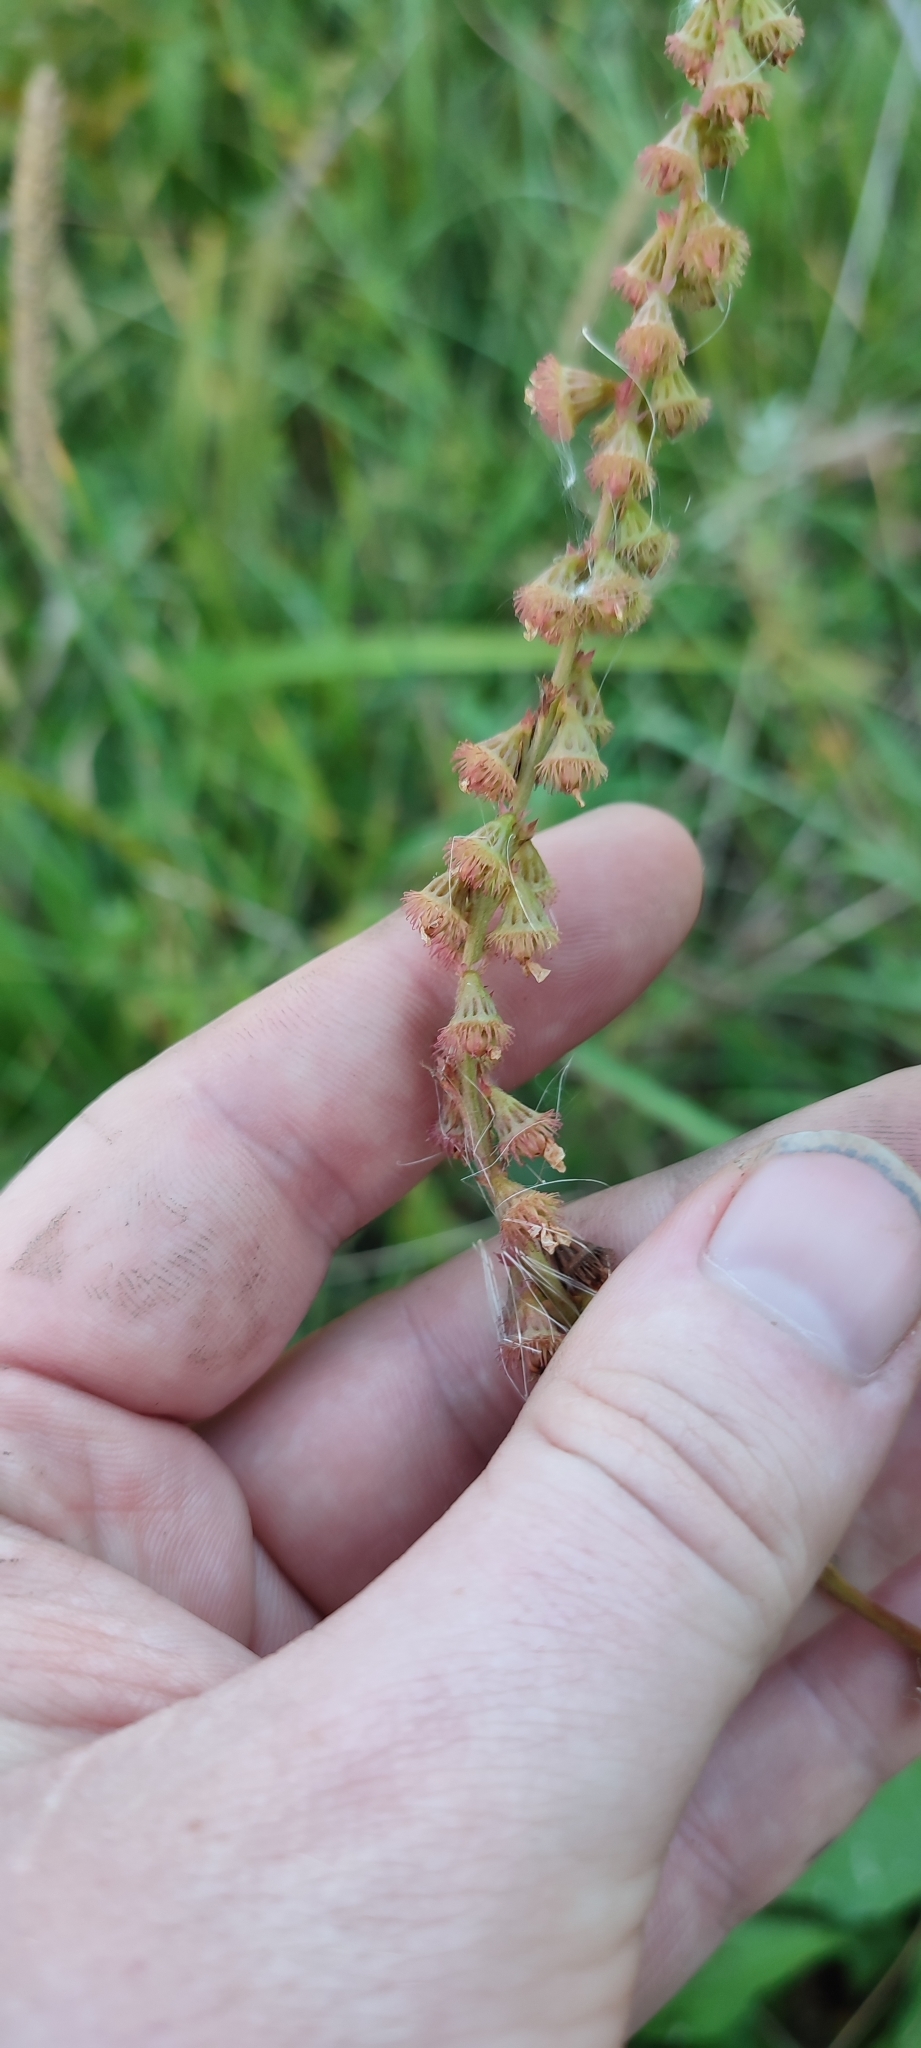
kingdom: Plantae
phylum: Tracheophyta
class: Magnoliopsida
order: Rosales
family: Rosaceae
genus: Agrimonia
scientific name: Agrimonia pilosa
